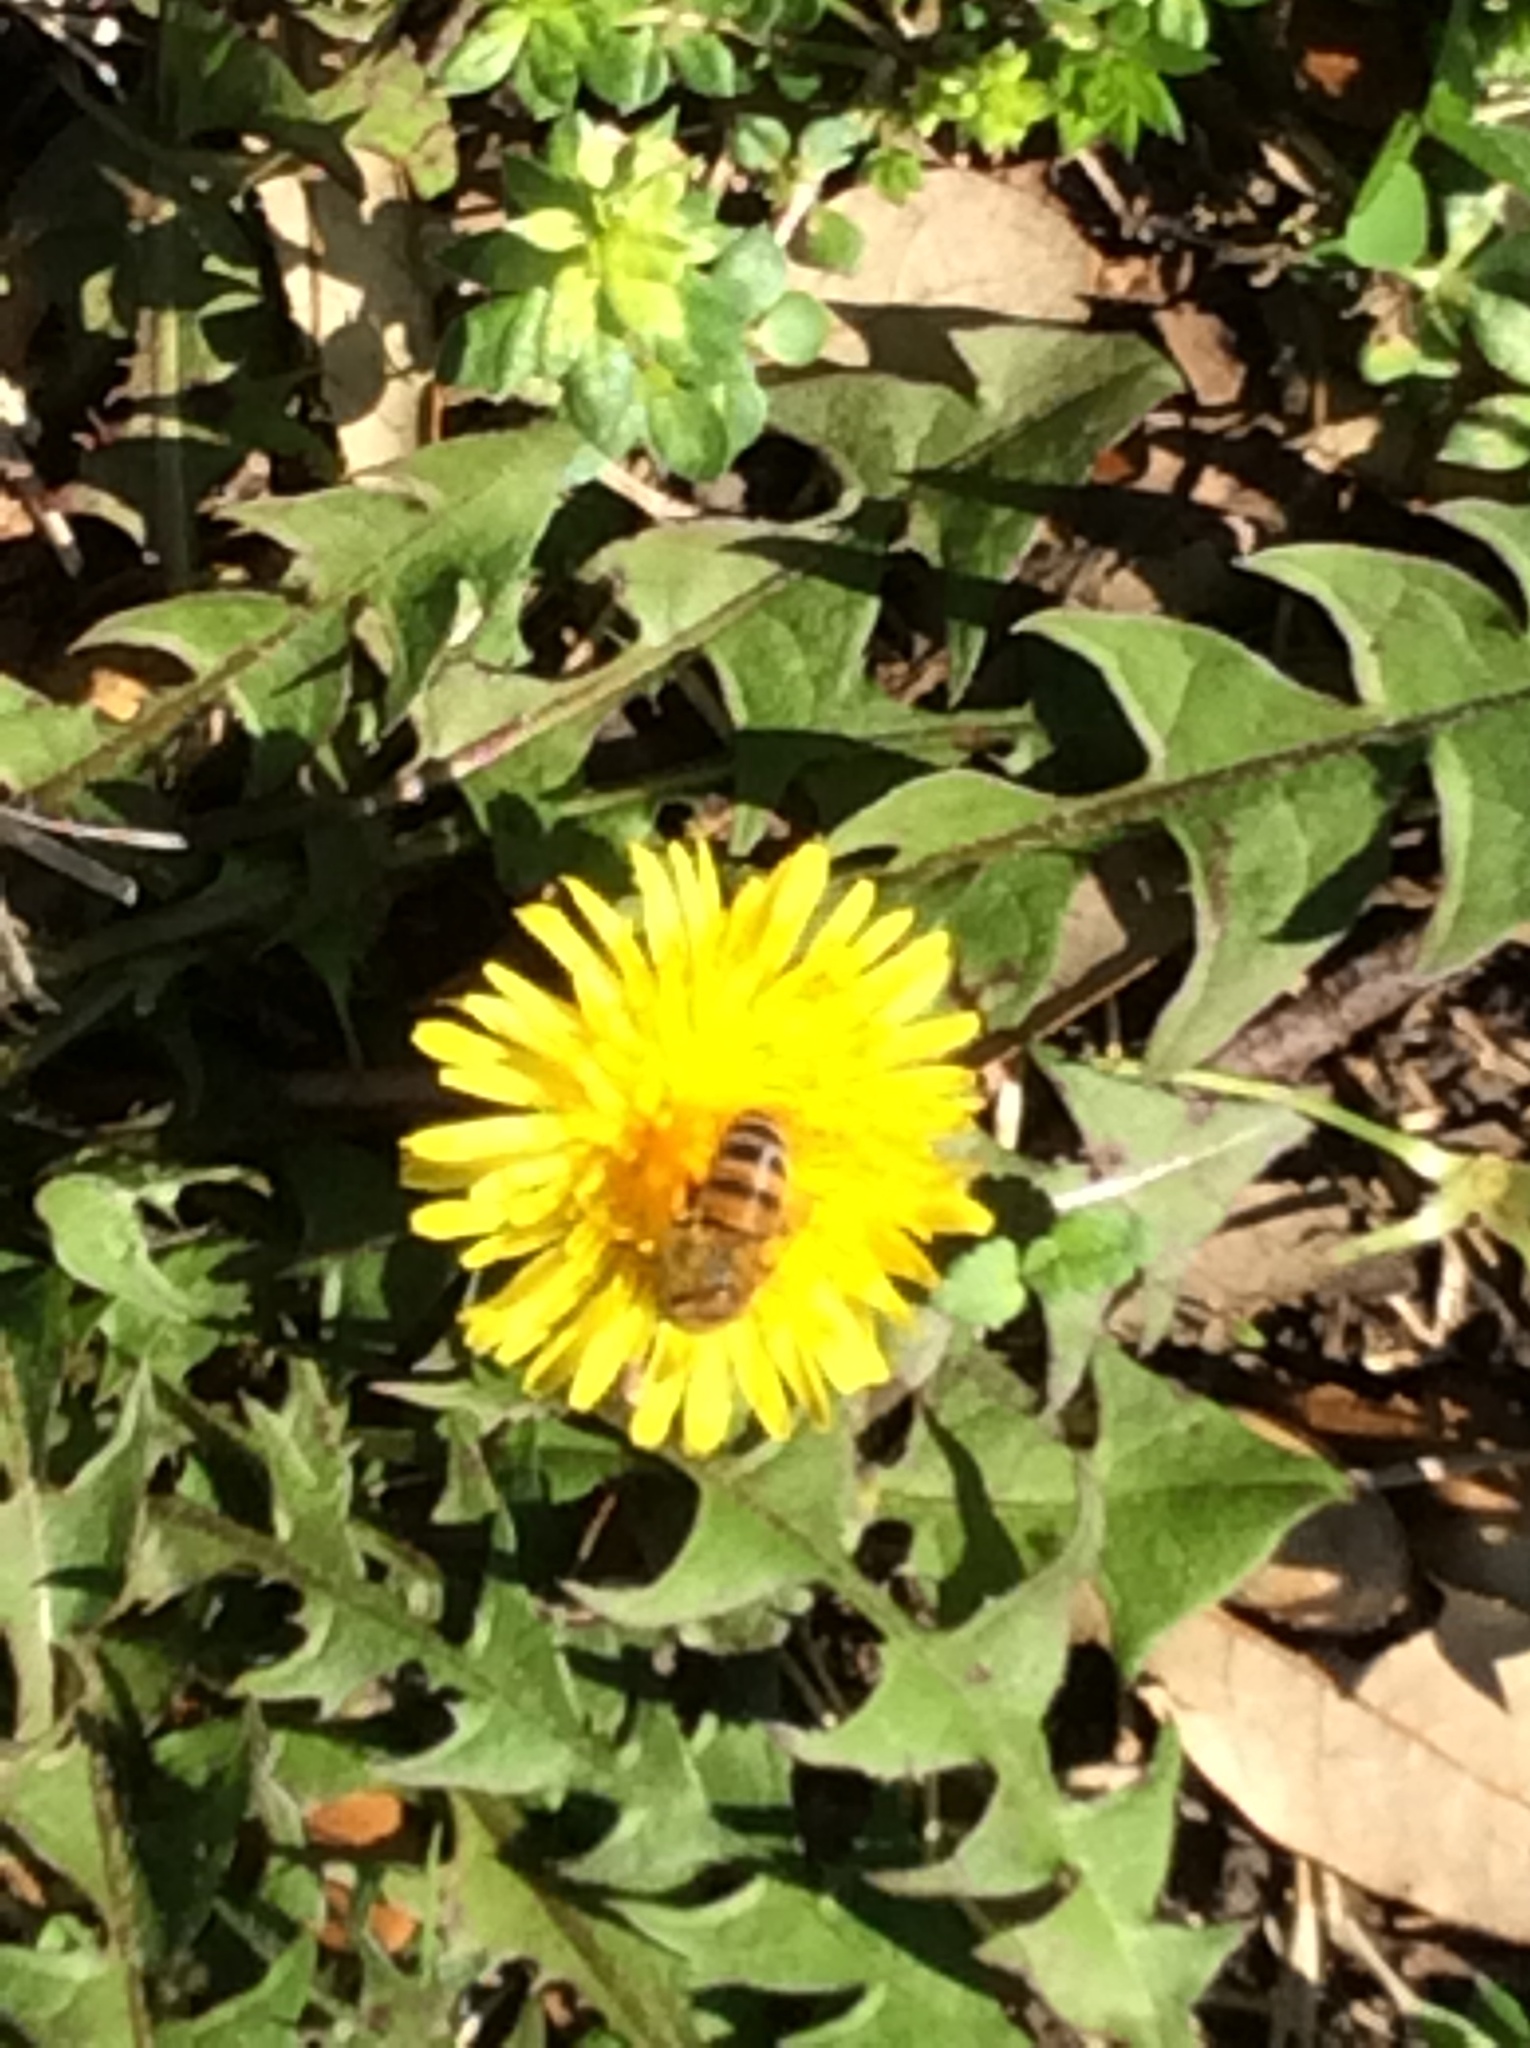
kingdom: Animalia
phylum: Arthropoda
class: Insecta
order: Hymenoptera
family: Apidae
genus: Apis
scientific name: Apis mellifera
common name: Honey bee
